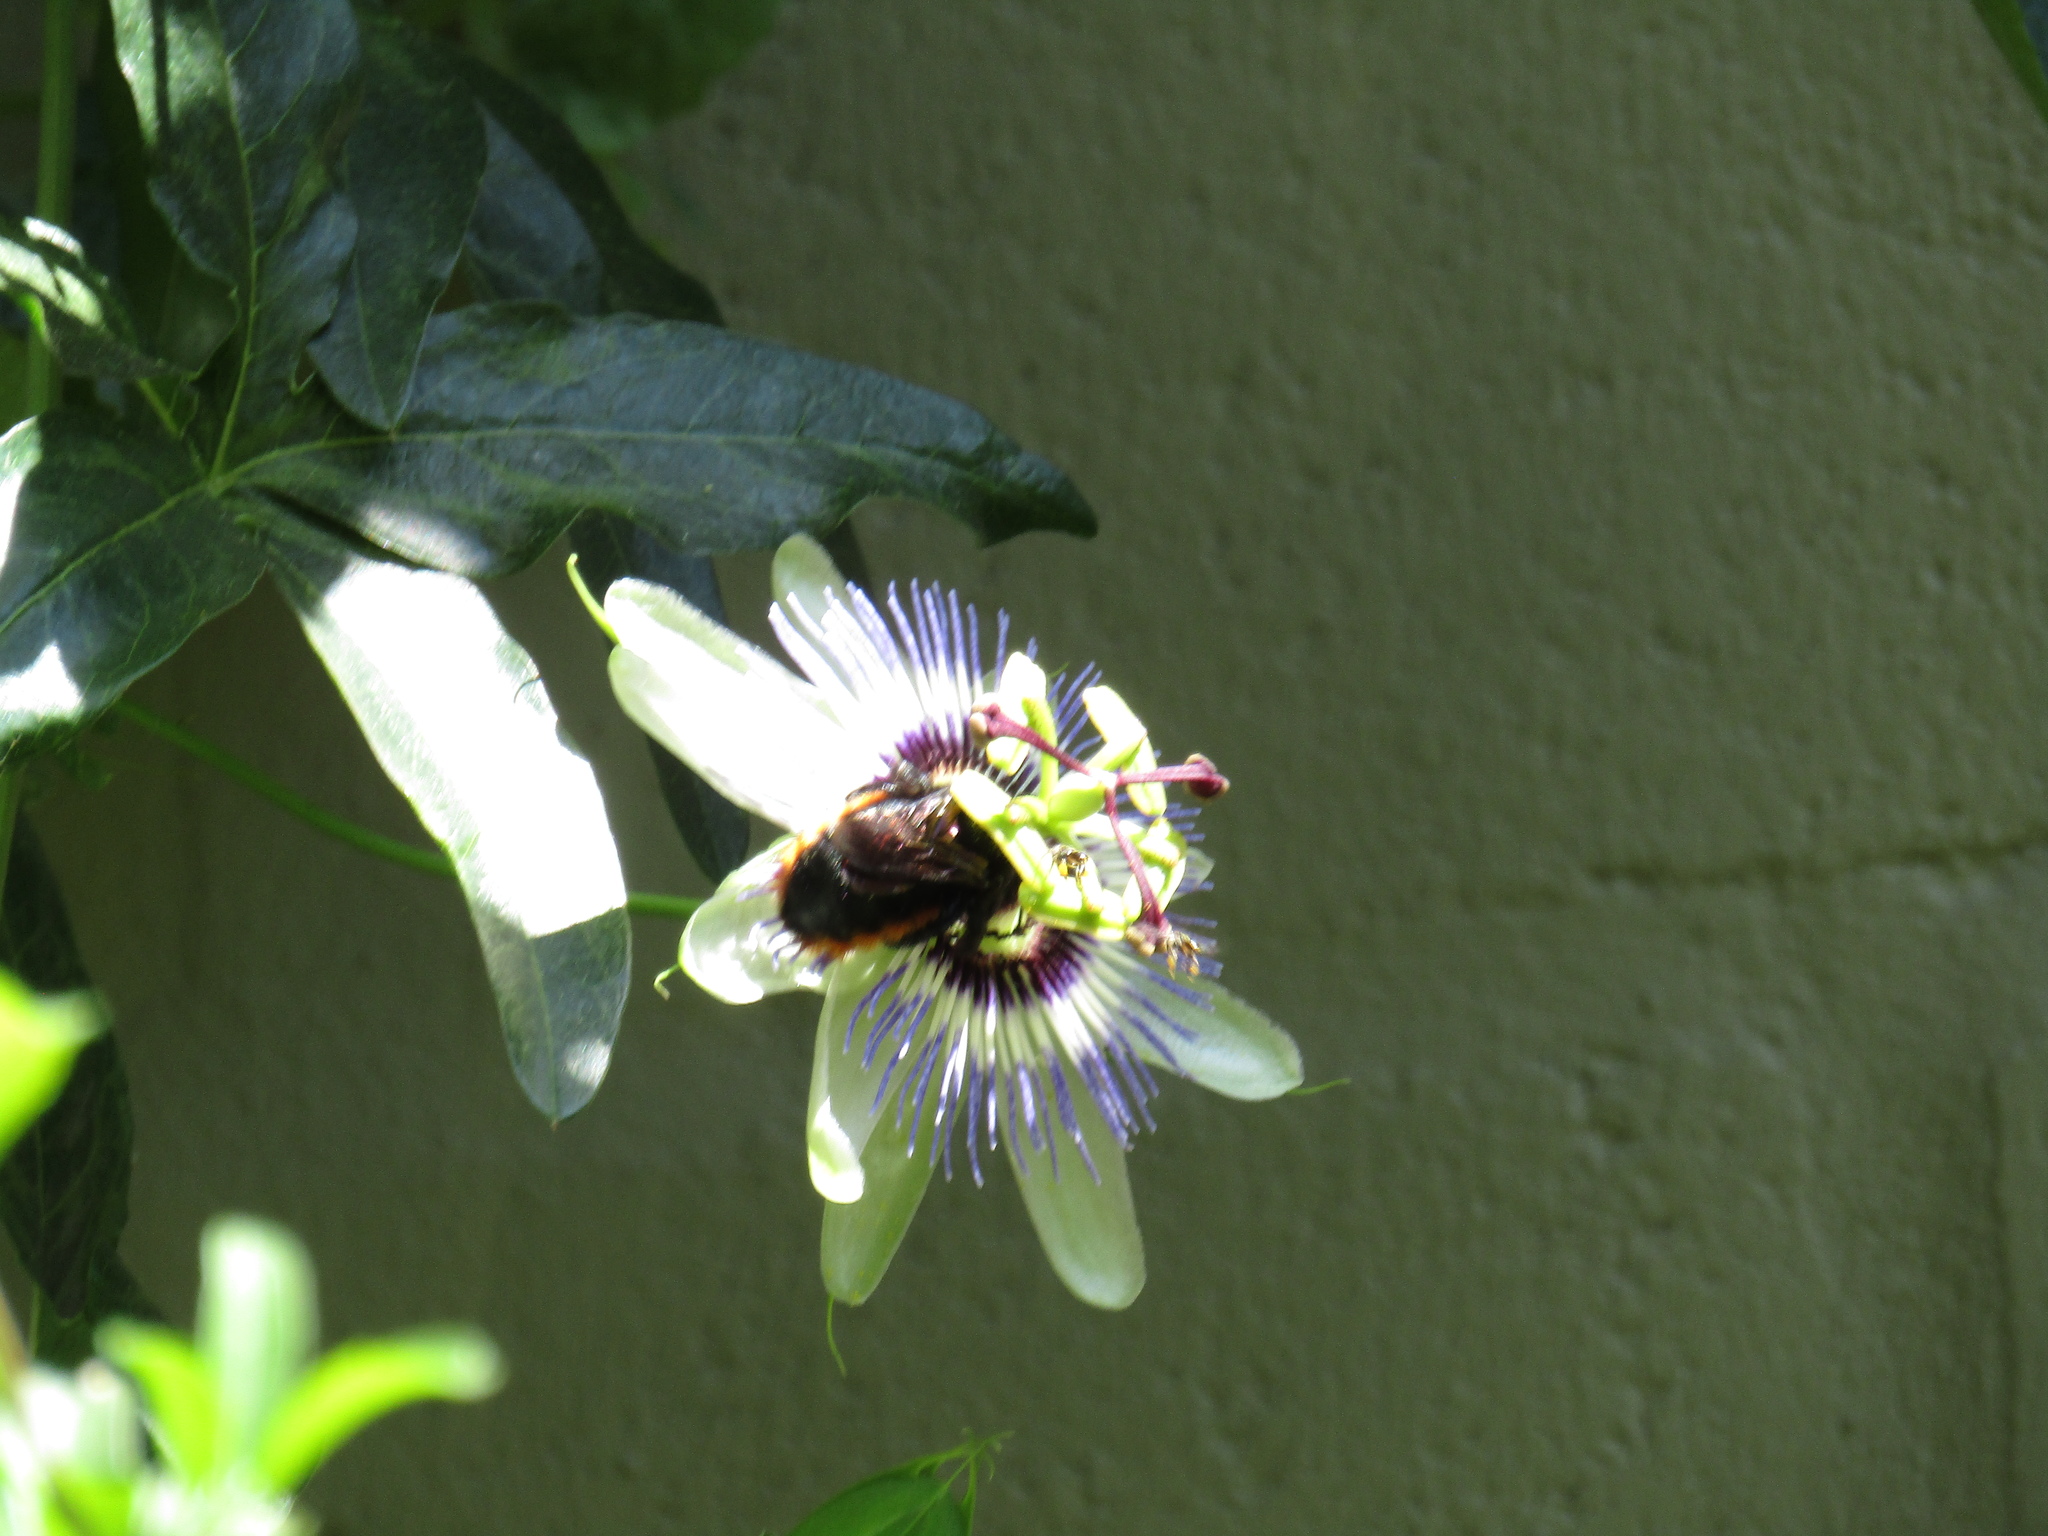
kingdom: Animalia
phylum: Arthropoda
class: Insecta
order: Hymenoptera
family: Apidae
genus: Xylocopa
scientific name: Xylocopa augusti
